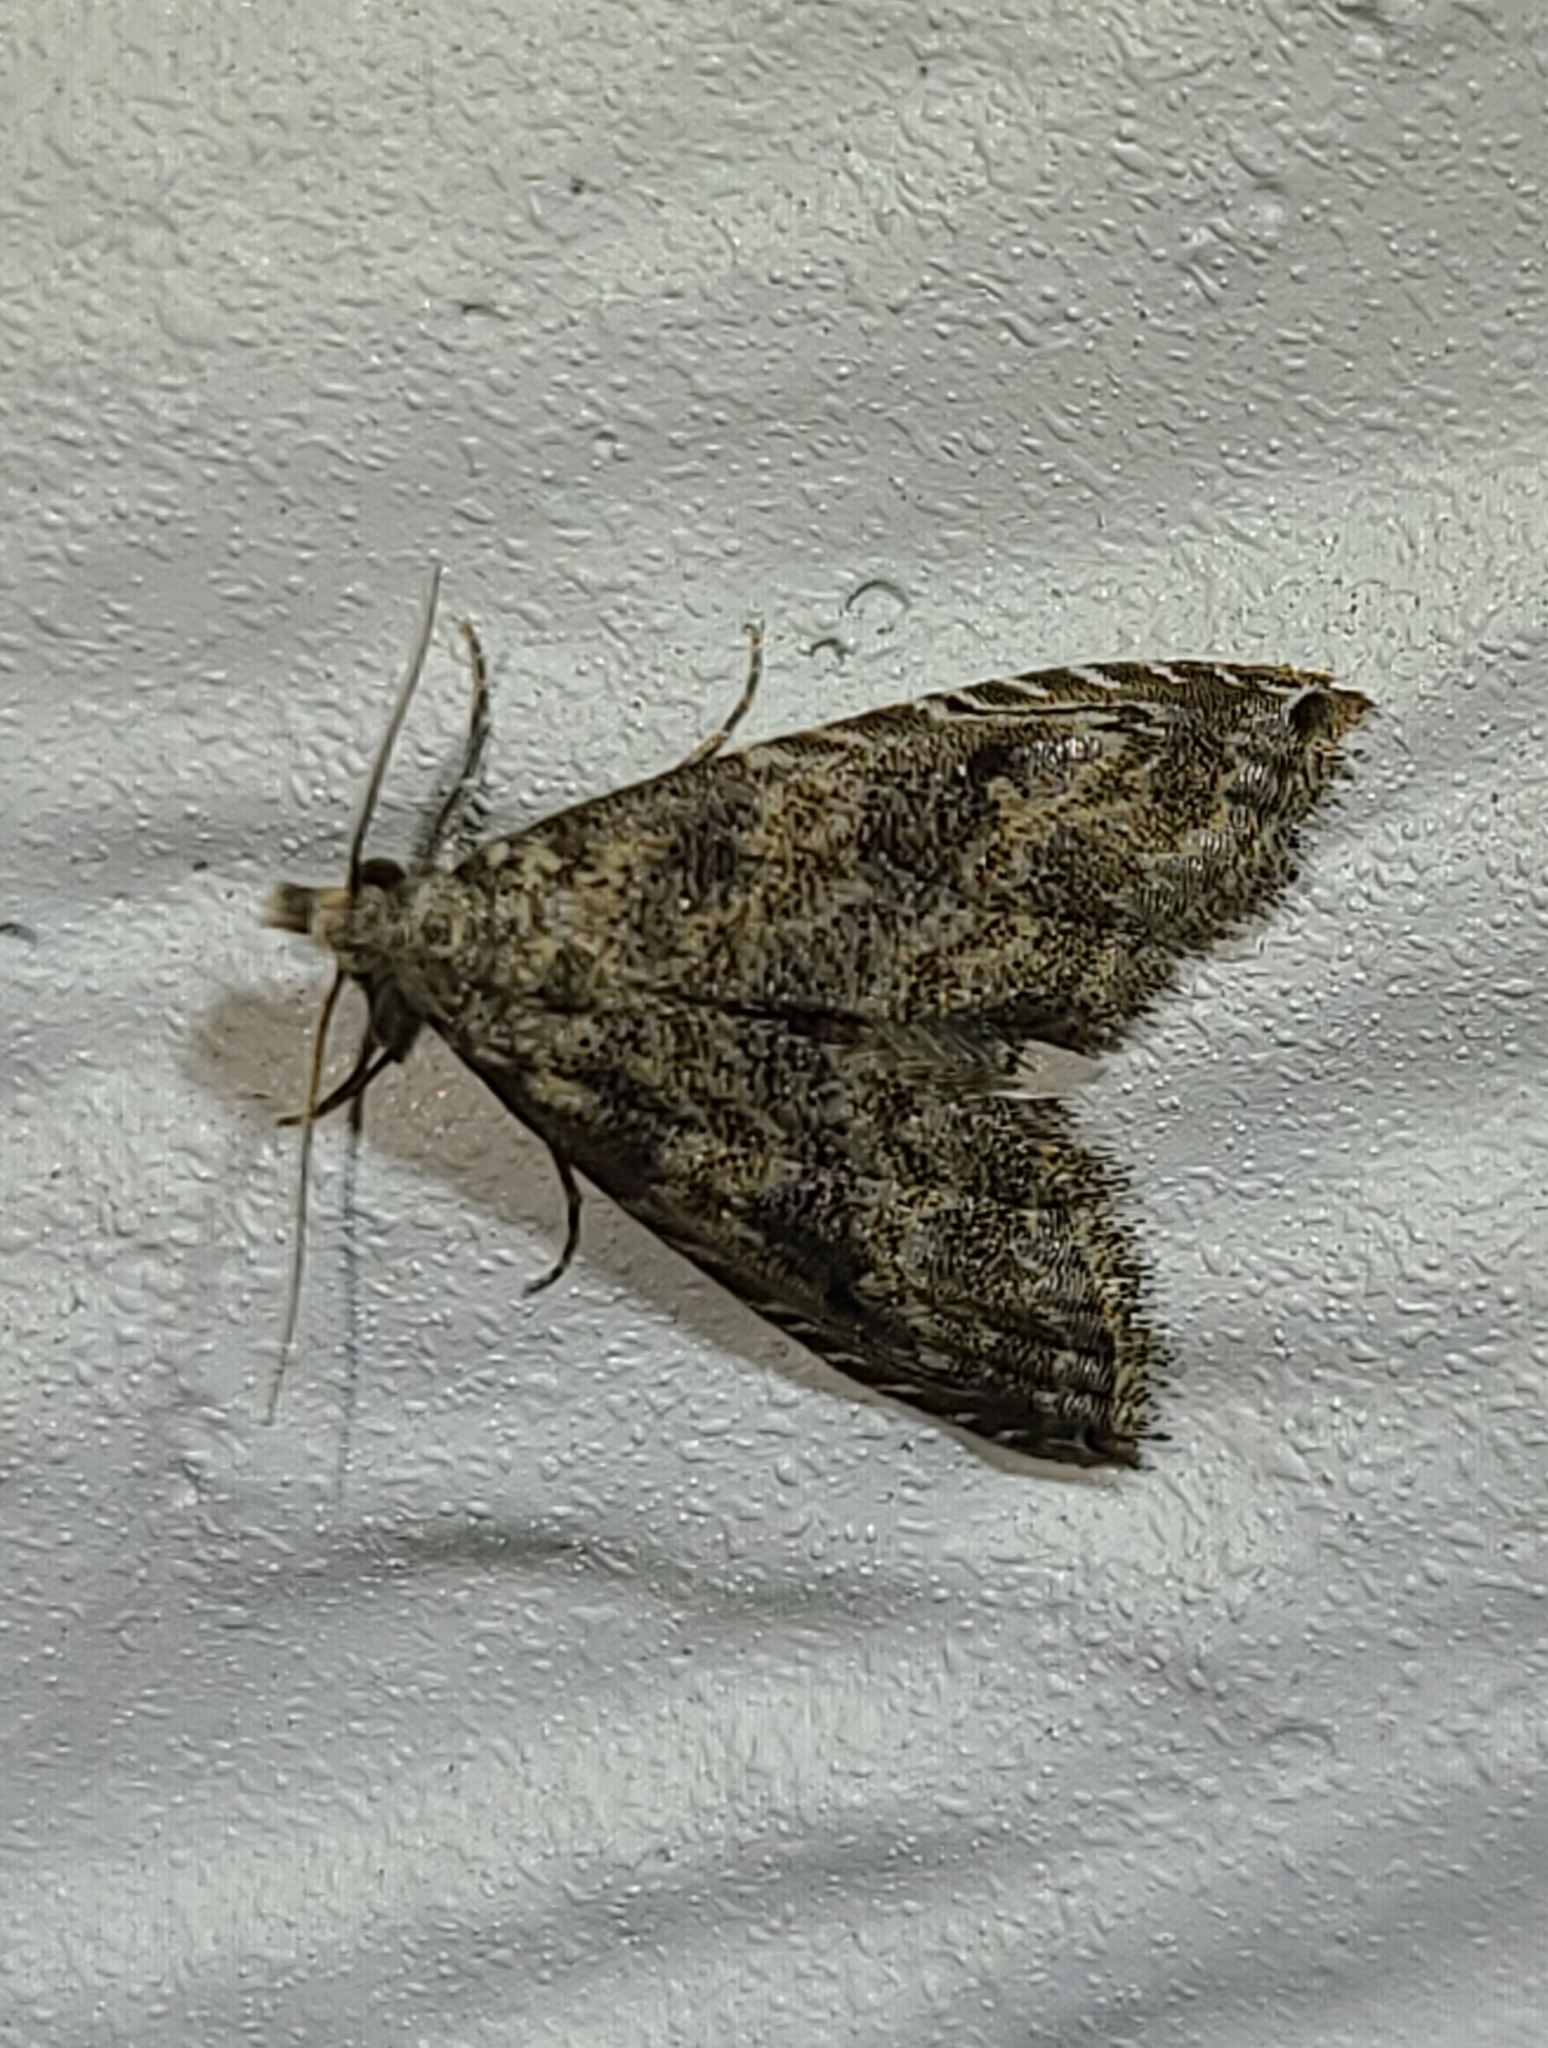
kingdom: Animalia
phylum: Arthropoda
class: Insecta
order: Lepidoptera
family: Noctuidae
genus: Phobolosia
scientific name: Phobolosia anfracta
